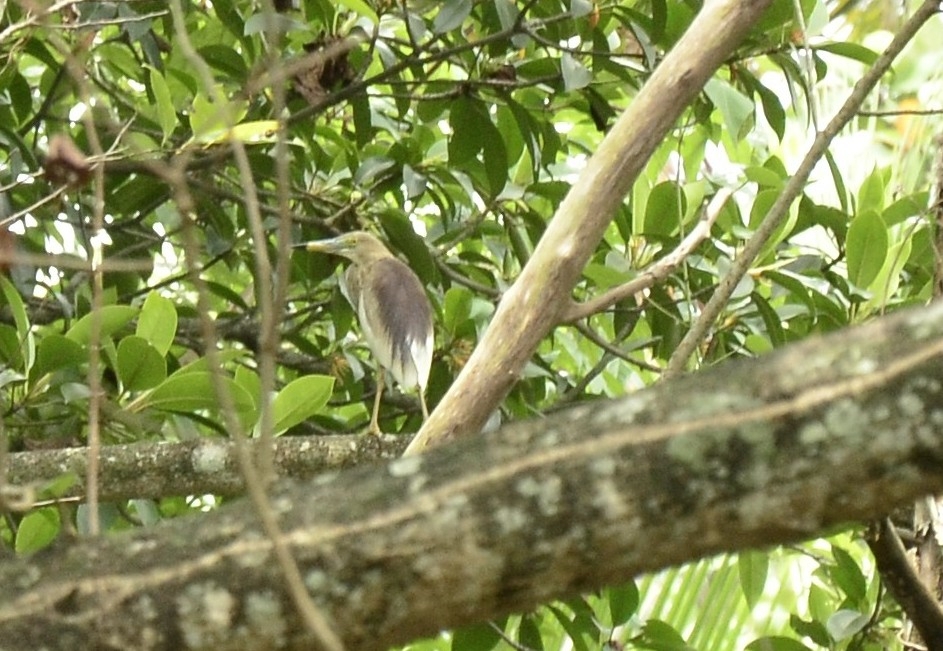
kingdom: Animalia
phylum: Chordata
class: Aves
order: Pelecaniformes
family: Ardeidae
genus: Ardeola
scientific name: Ardeola grayii
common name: Indian pond heron
